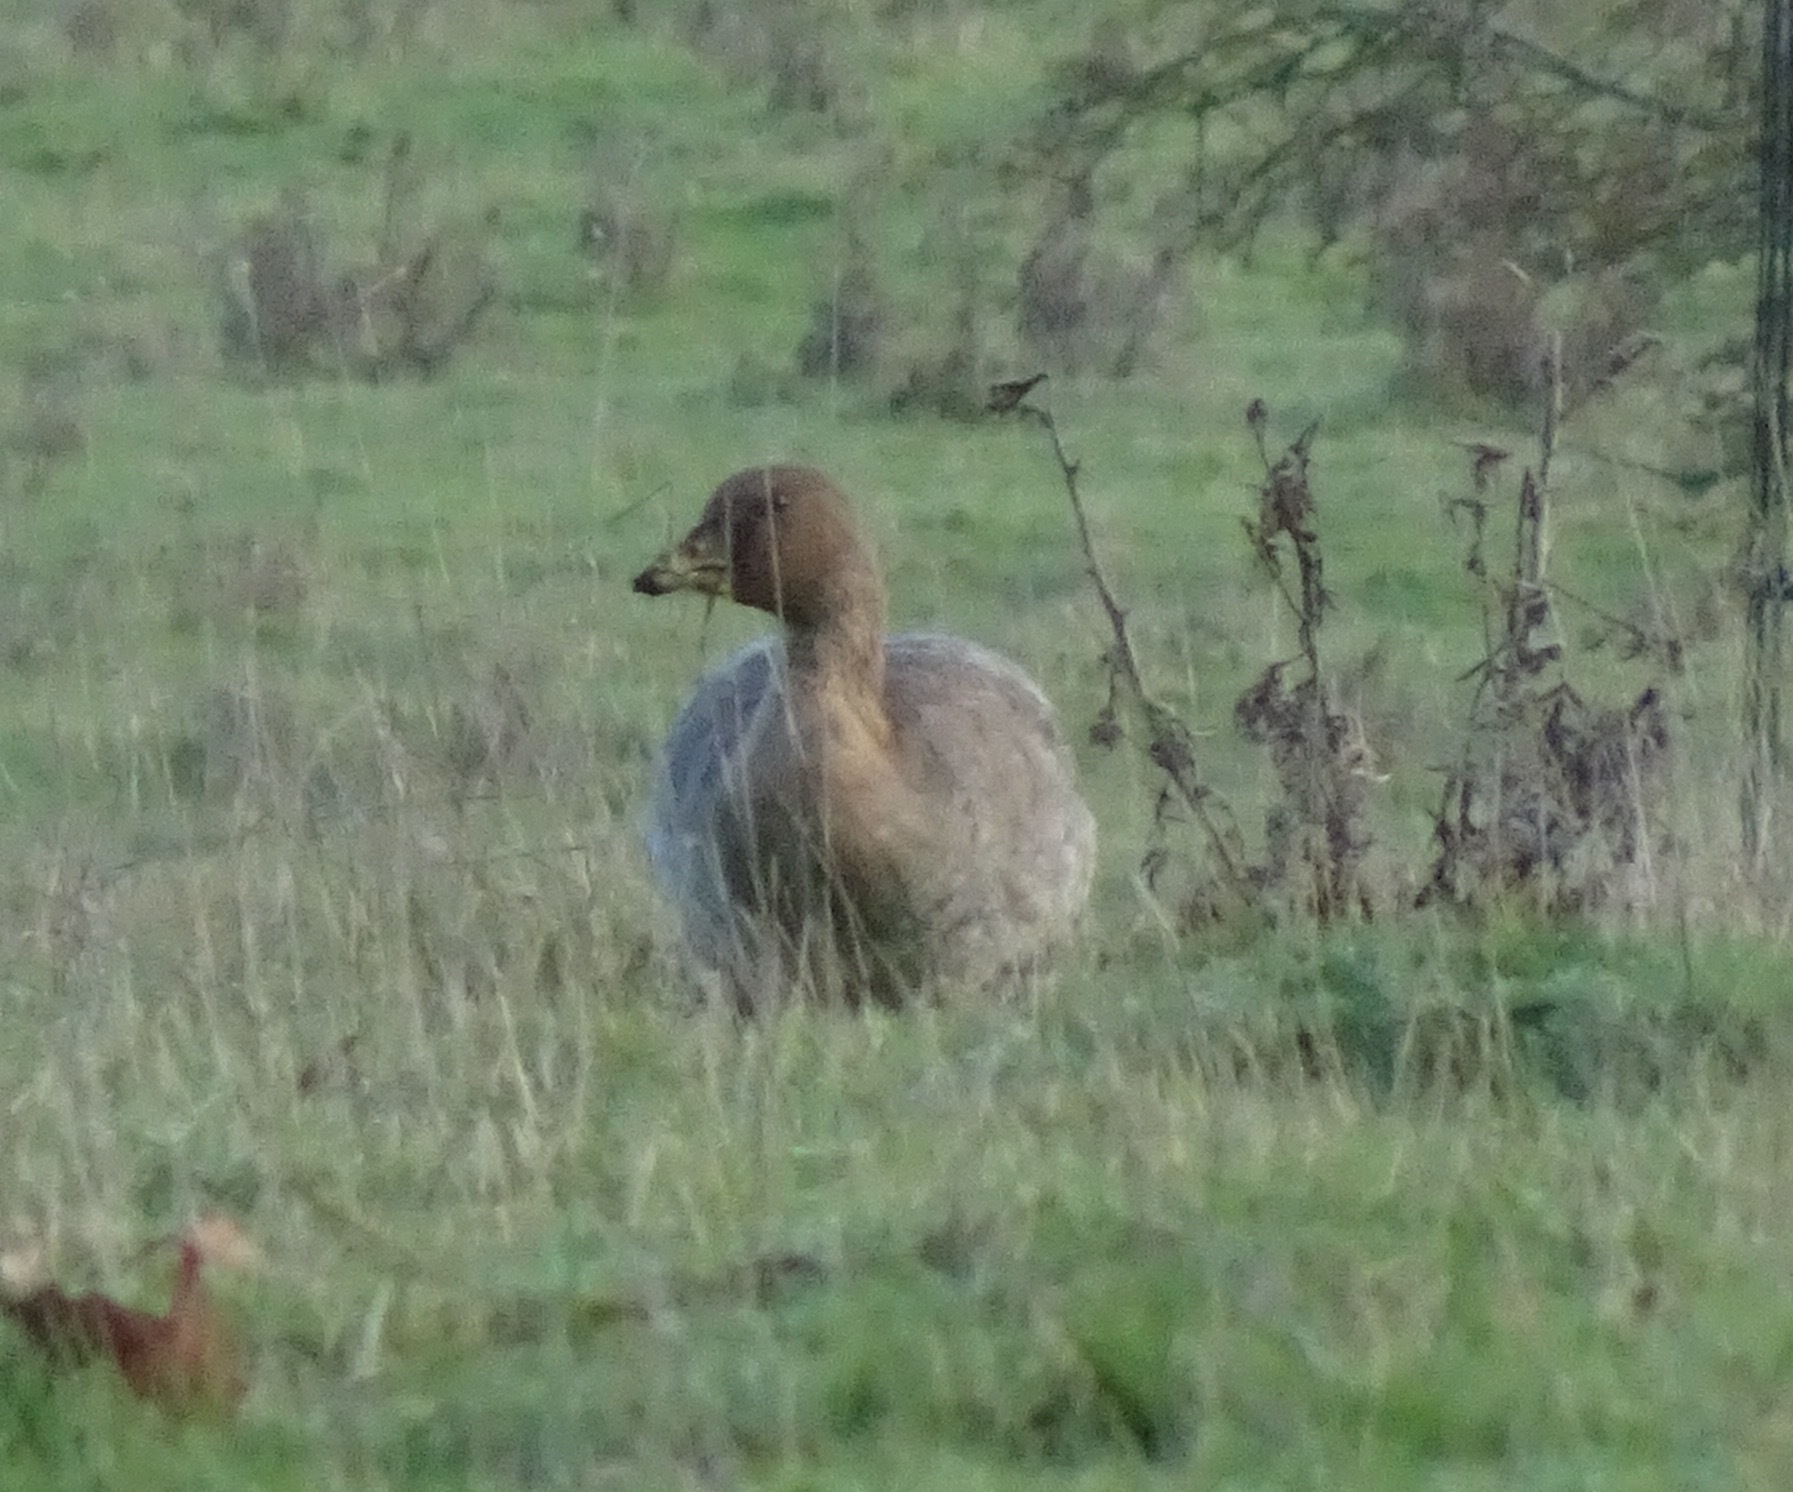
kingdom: Animalia
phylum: Chordata
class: Aves
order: Anseriformes
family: Anatidae
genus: Anser
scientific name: Anser serrirostris
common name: Tundra bean goose
